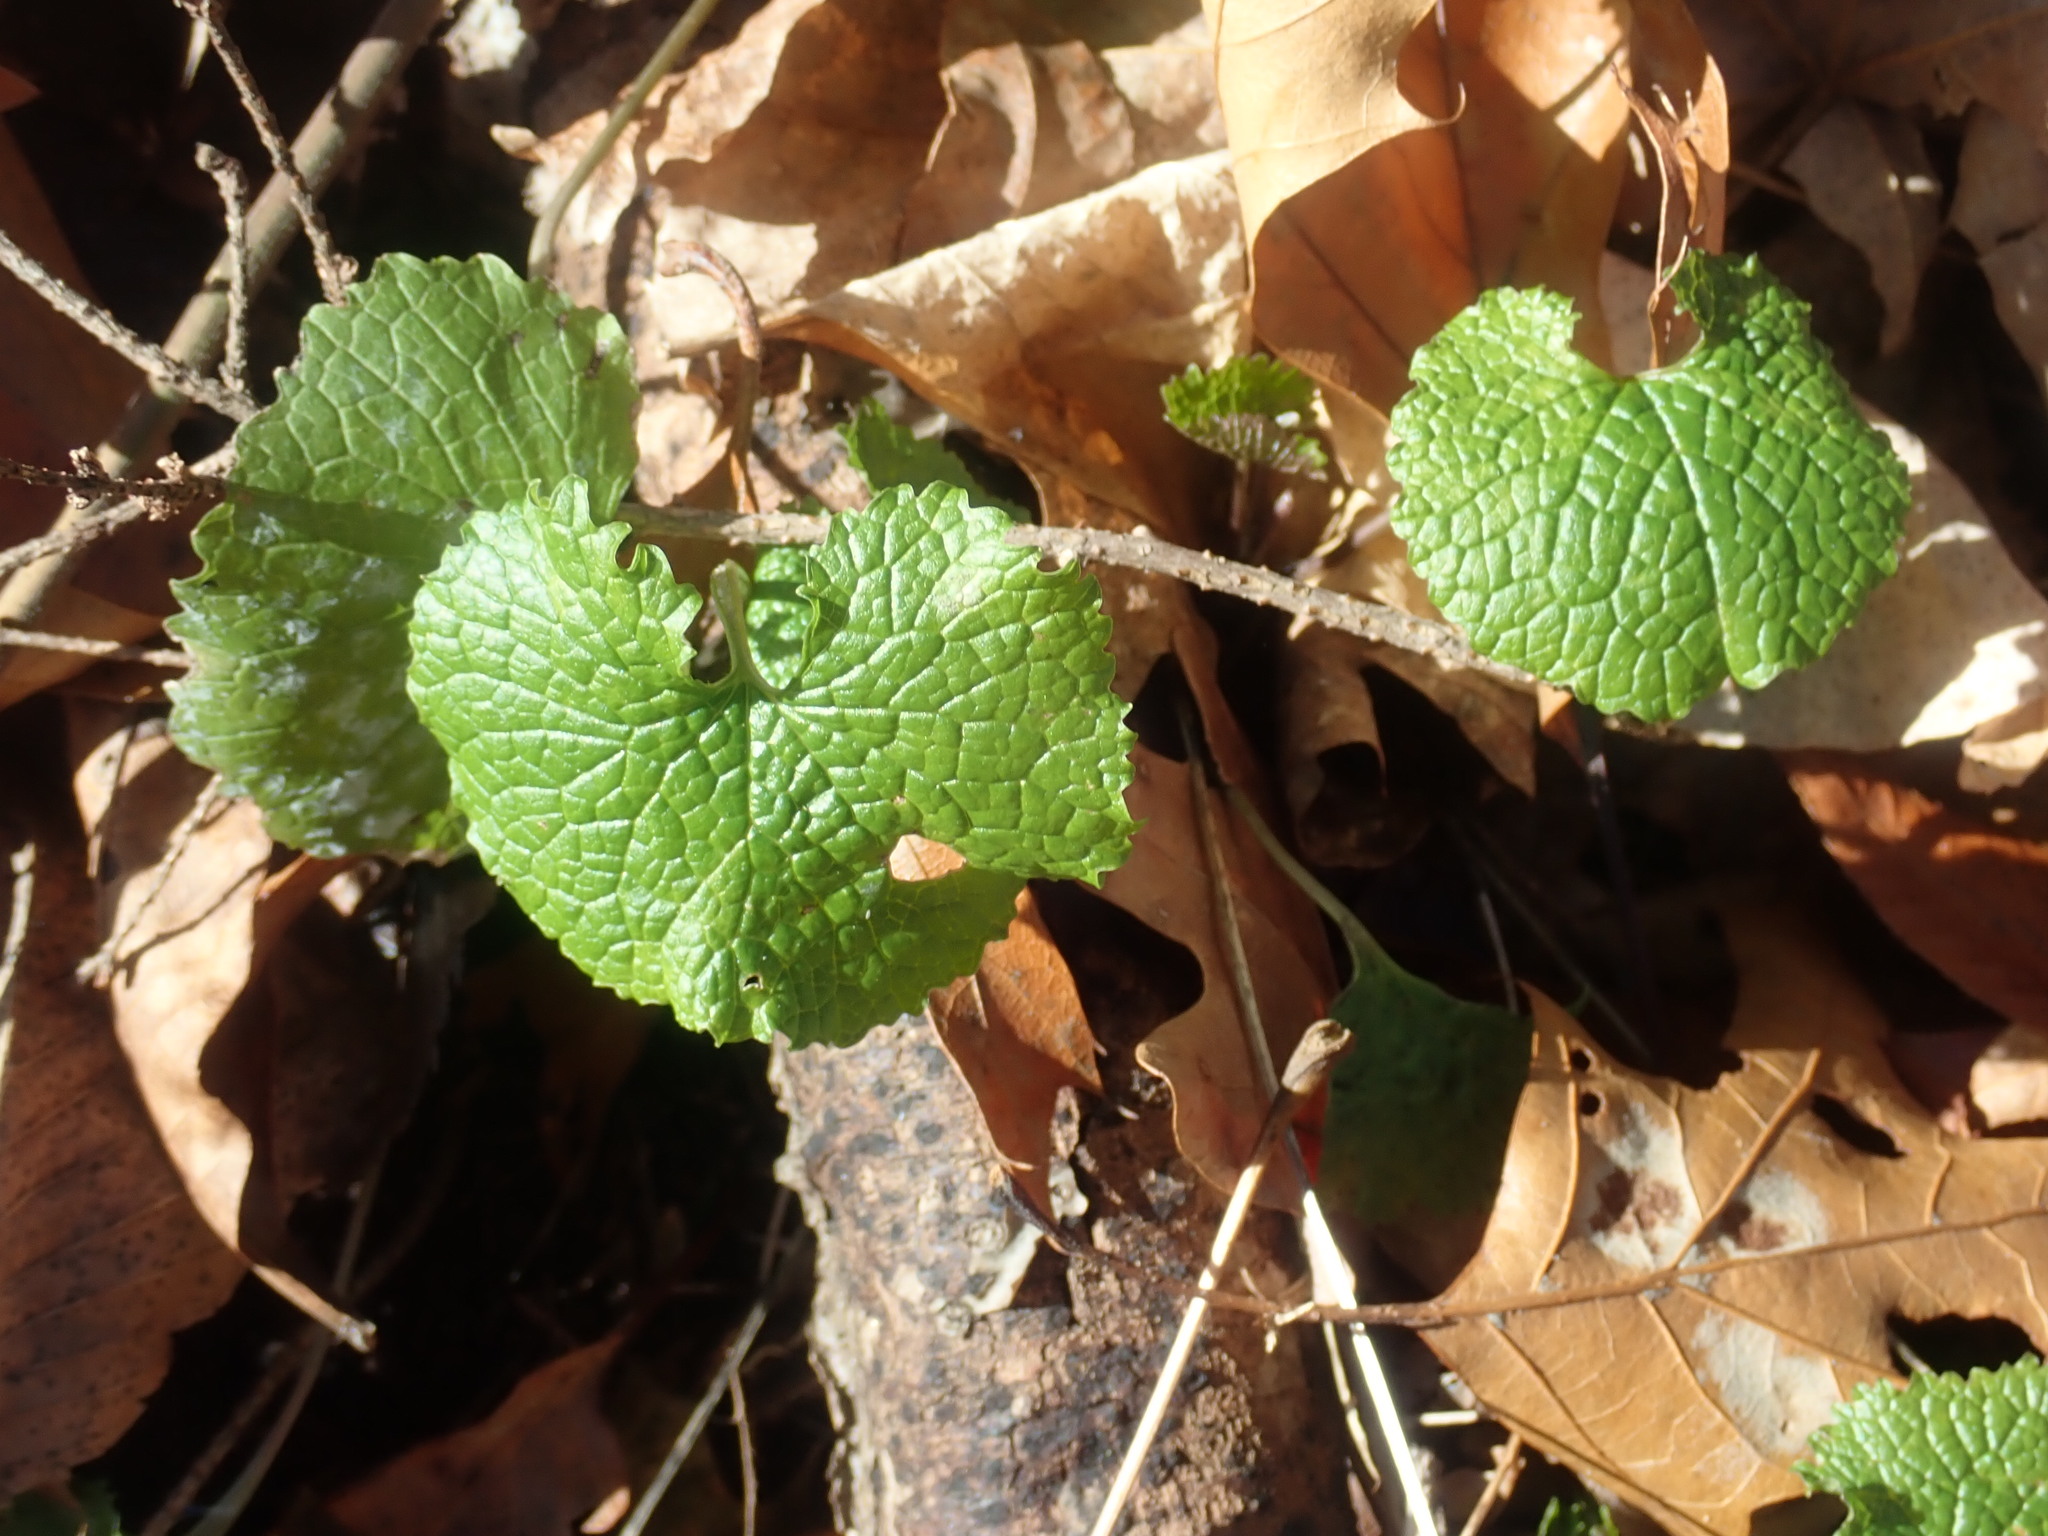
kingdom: Plantae
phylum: Tracheophyta
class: Magnoliopsida
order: Brassicales
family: Brassicaceae
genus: Alliaria
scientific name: Alliaria petiolata
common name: Garlic mustard
